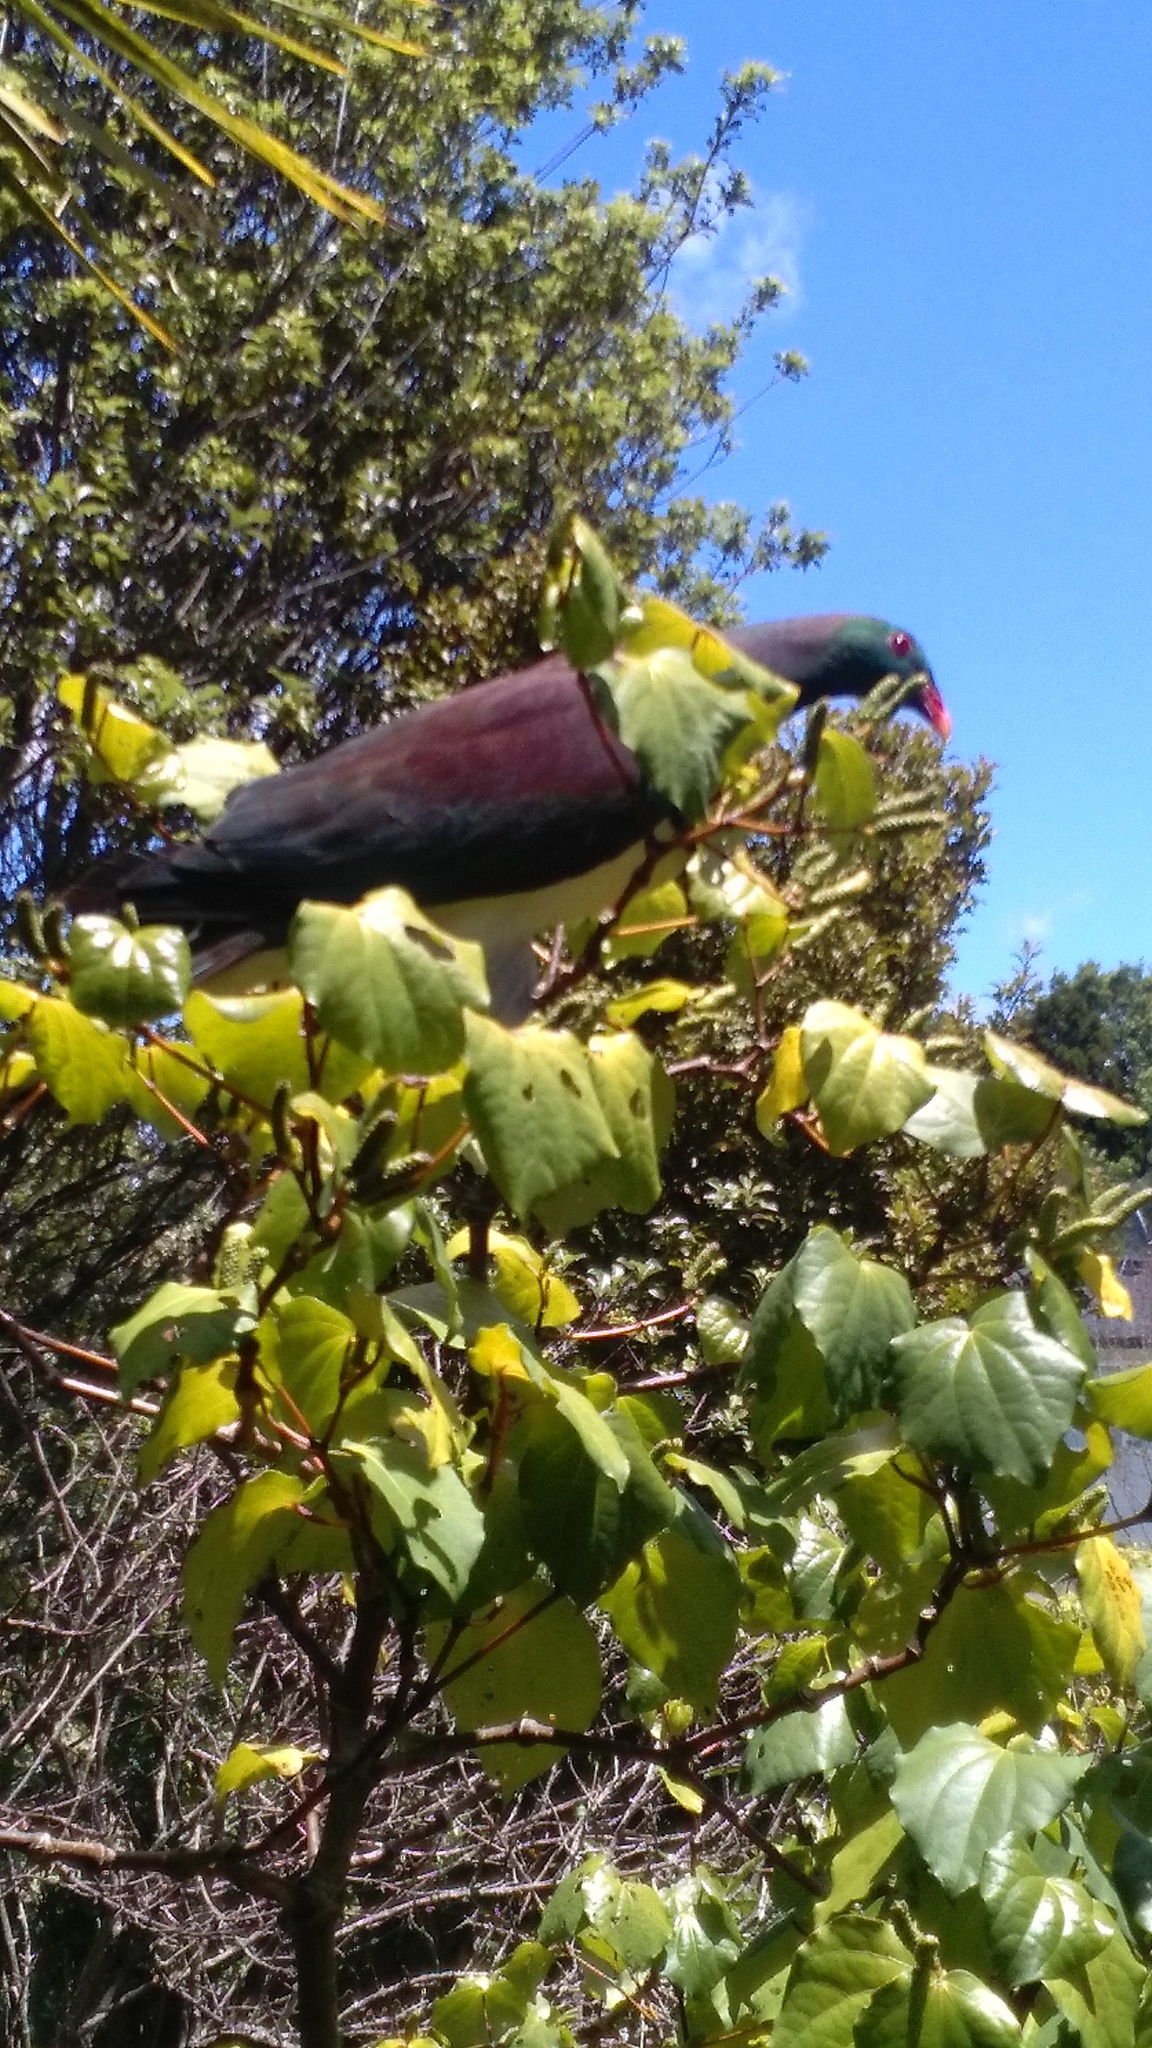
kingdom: Animalia
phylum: Chordata
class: Aves
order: Columbiformes
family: Columbidae
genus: Hemiphaga
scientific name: Hemiphaga novaeseelandiae
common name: New zealand pigeon
